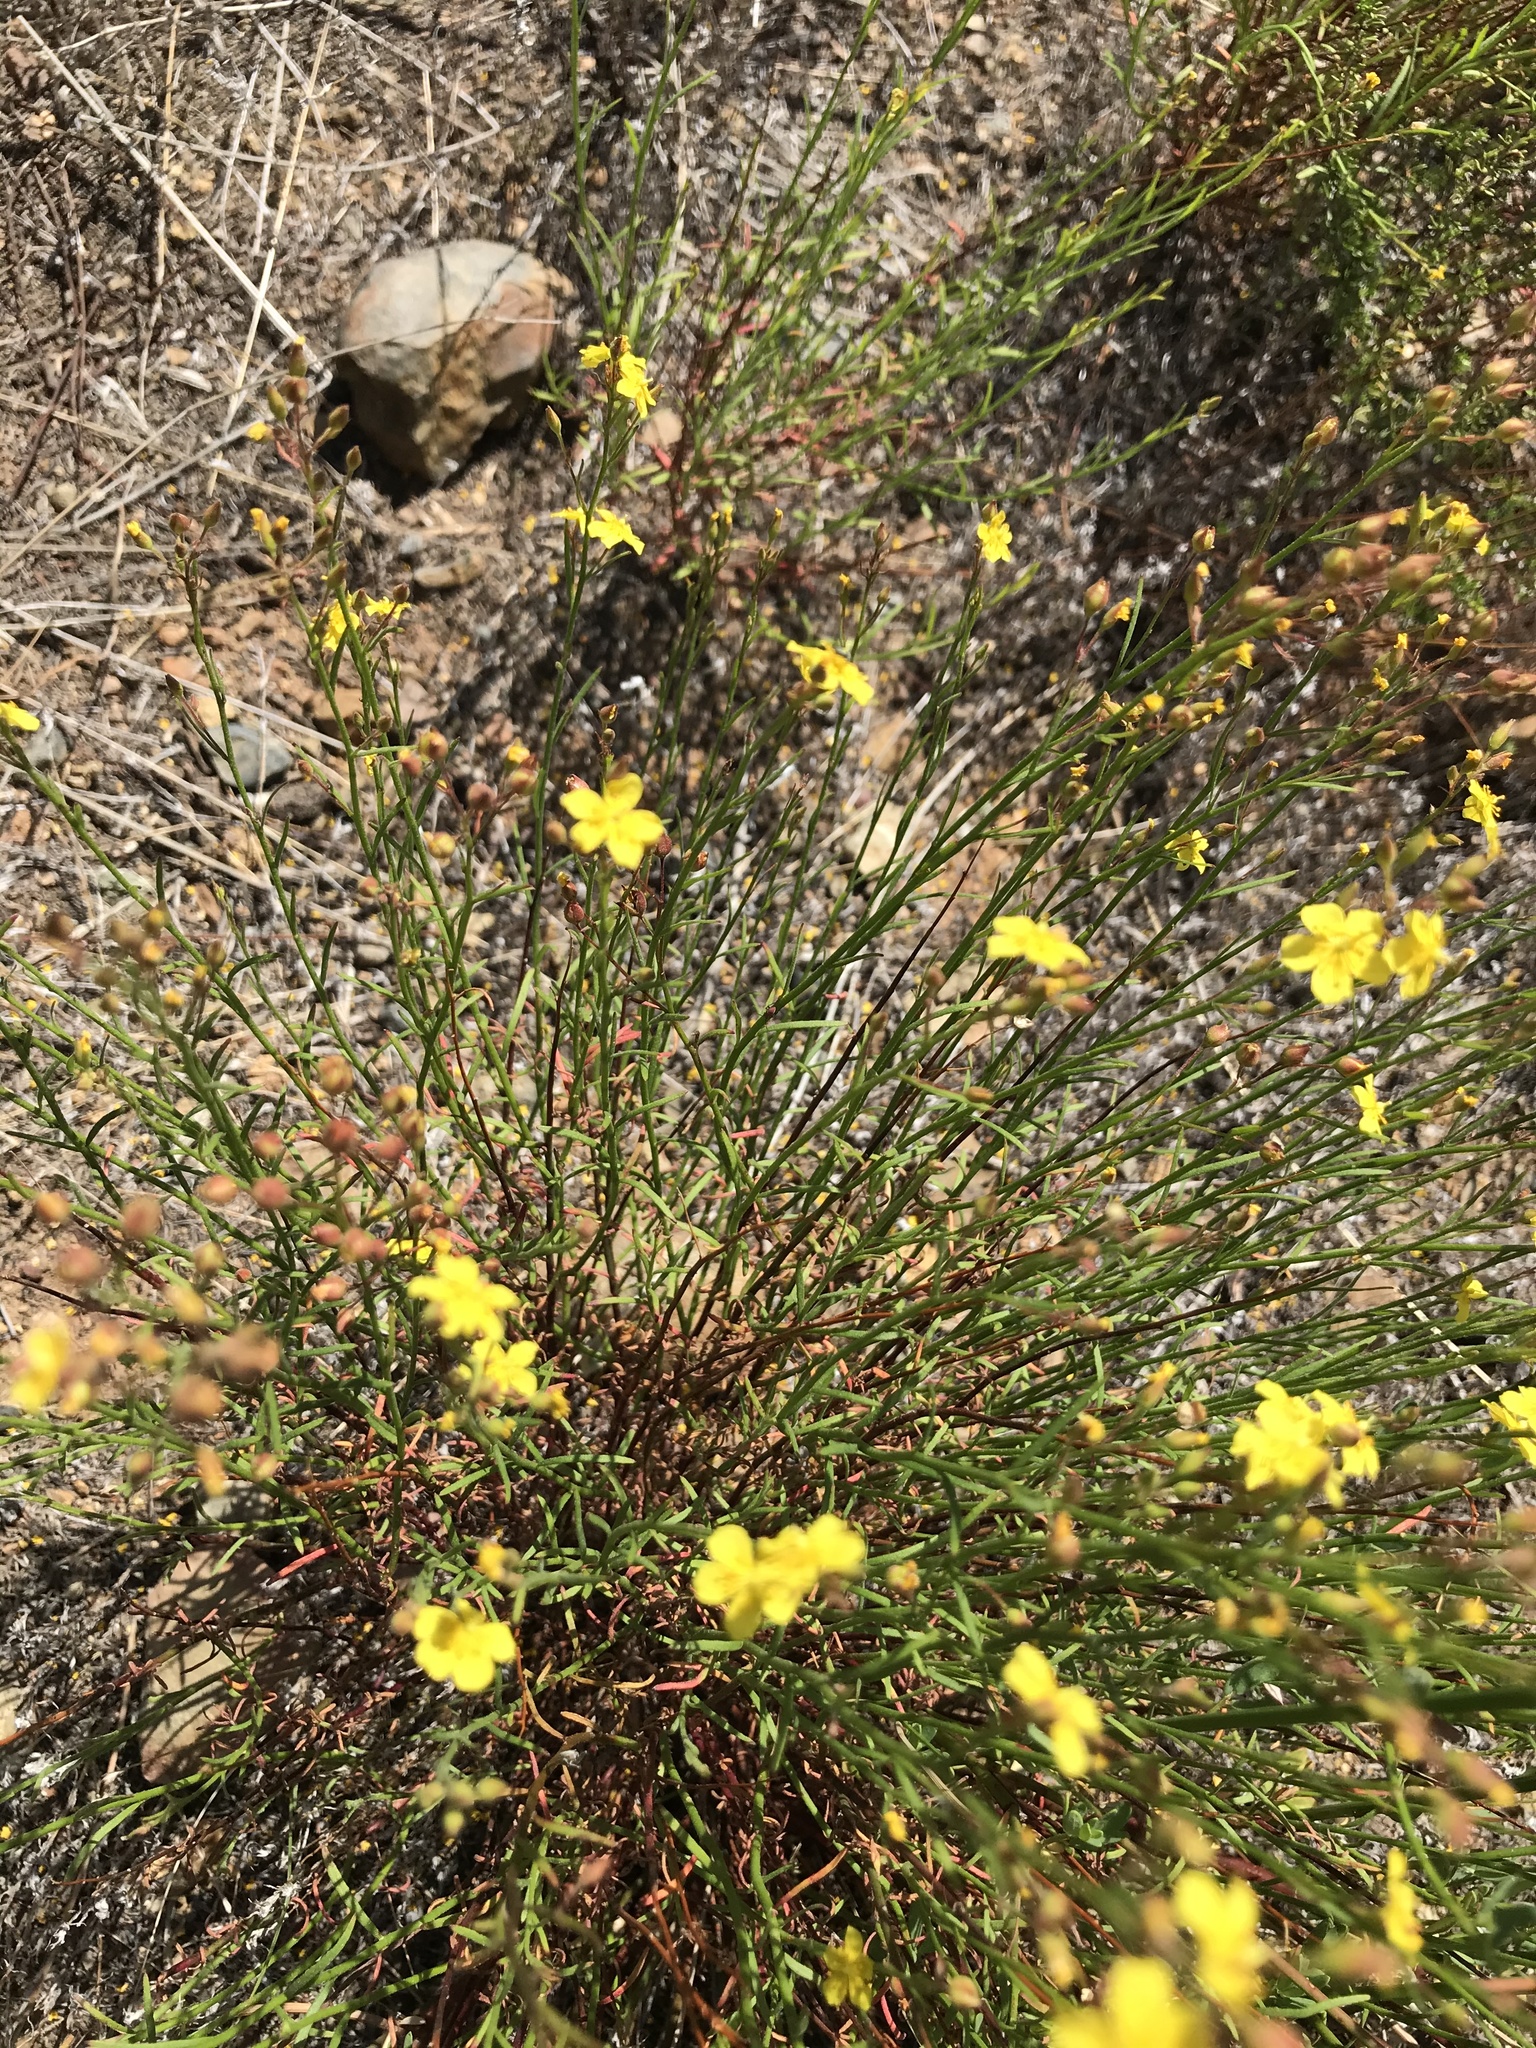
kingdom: Plantae
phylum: Tracheophyta
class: Magnoliopsida
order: Malvales
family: Cistaceae
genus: Crocanthemum
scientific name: Crocanthemum scoparium
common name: Broom-rose
